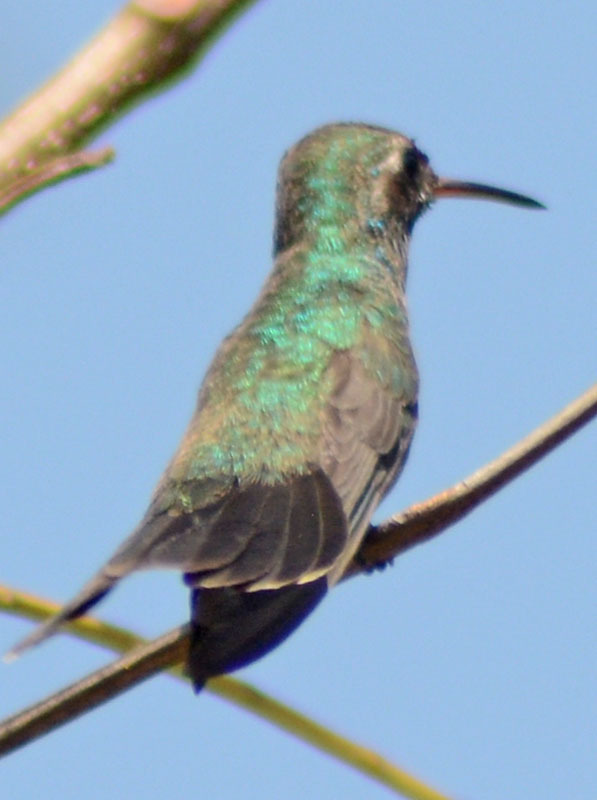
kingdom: Animalia
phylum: Chordata
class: Aves
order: Apodiformes
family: Trochilidae
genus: Cynanthus
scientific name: Cynanthus latirostris
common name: Broad-billed hummingbird
